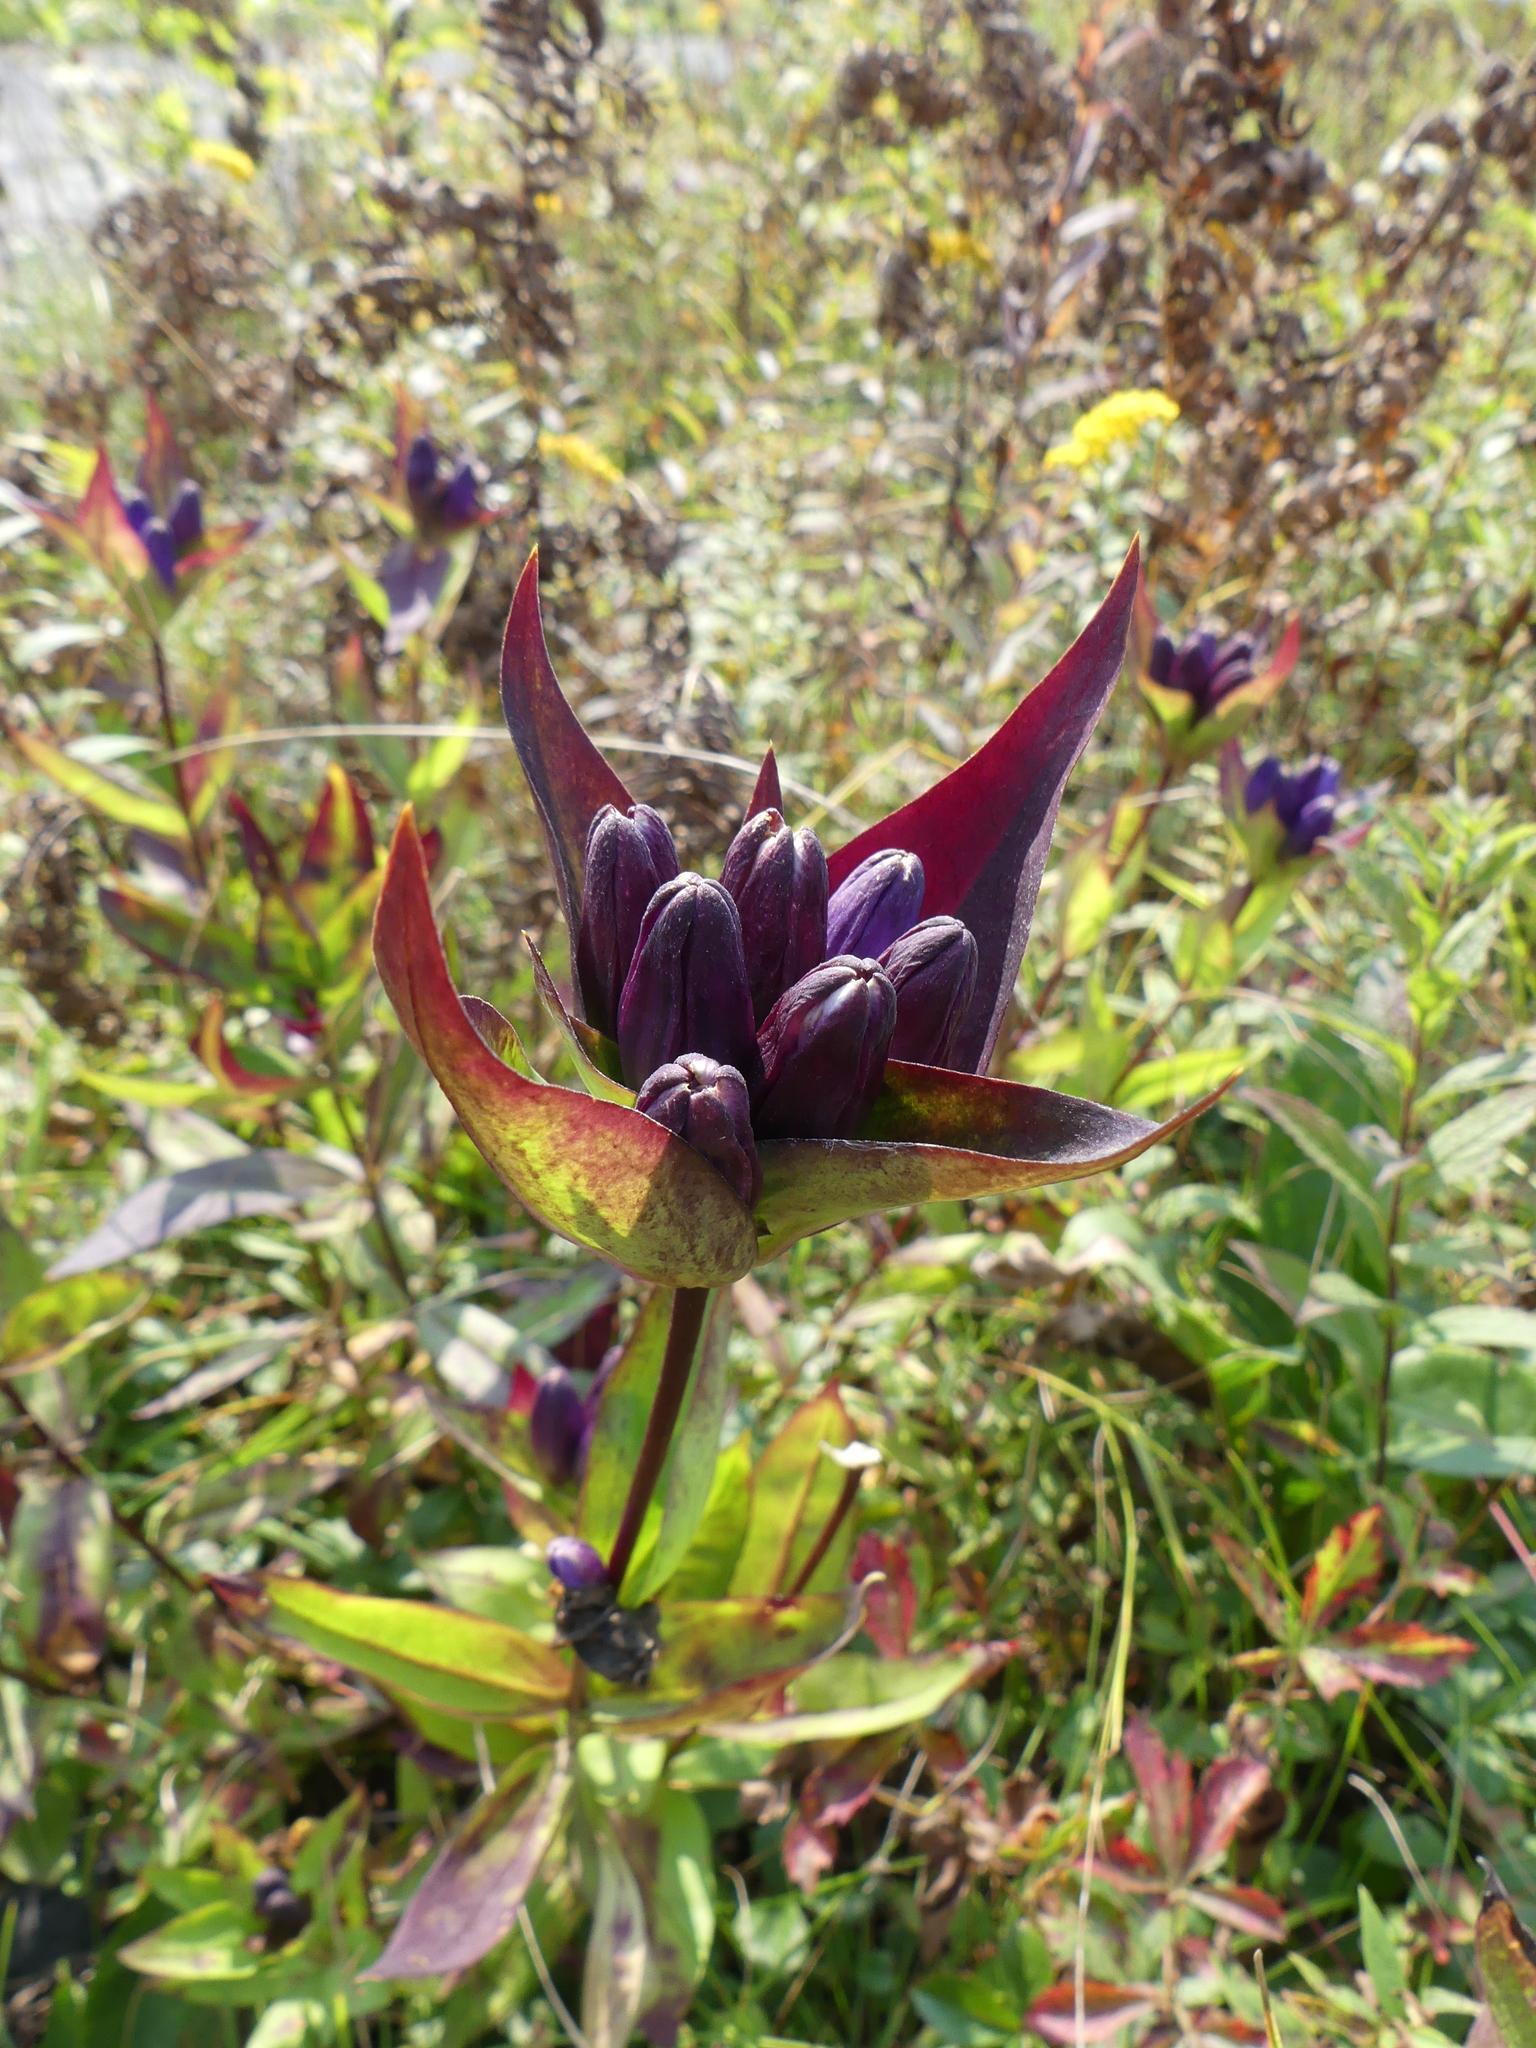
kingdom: Plantae
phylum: Tracheophyta
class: Magnoliopsida
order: Gentianales
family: Gentianaceae
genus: Gentiana
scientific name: Gentiana clausa
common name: Blind gentian
